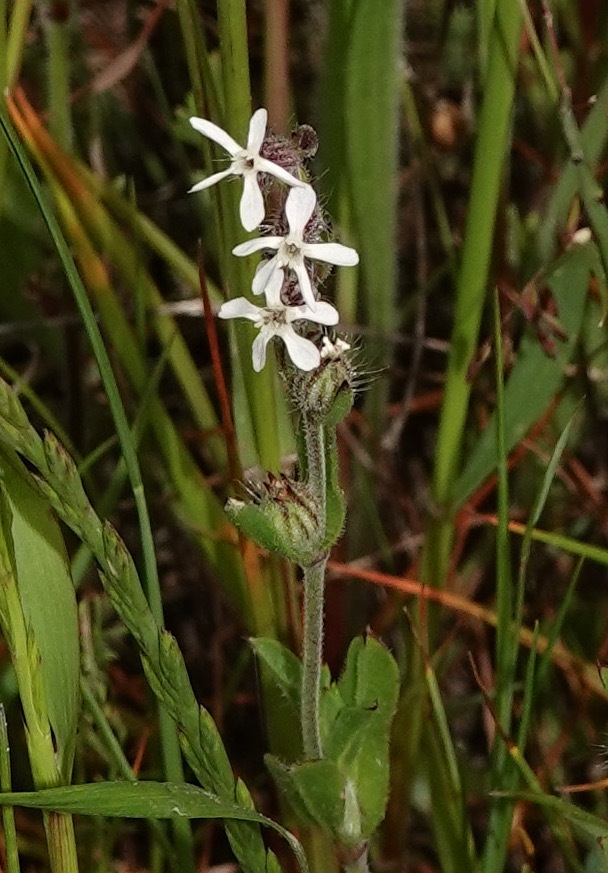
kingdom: Plantae
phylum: Tracheophyta
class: Magnoliopsida
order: Caryophyllales
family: Caryophyllaceae
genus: Silene
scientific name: Silene gallica
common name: Small-flowered catchfly
